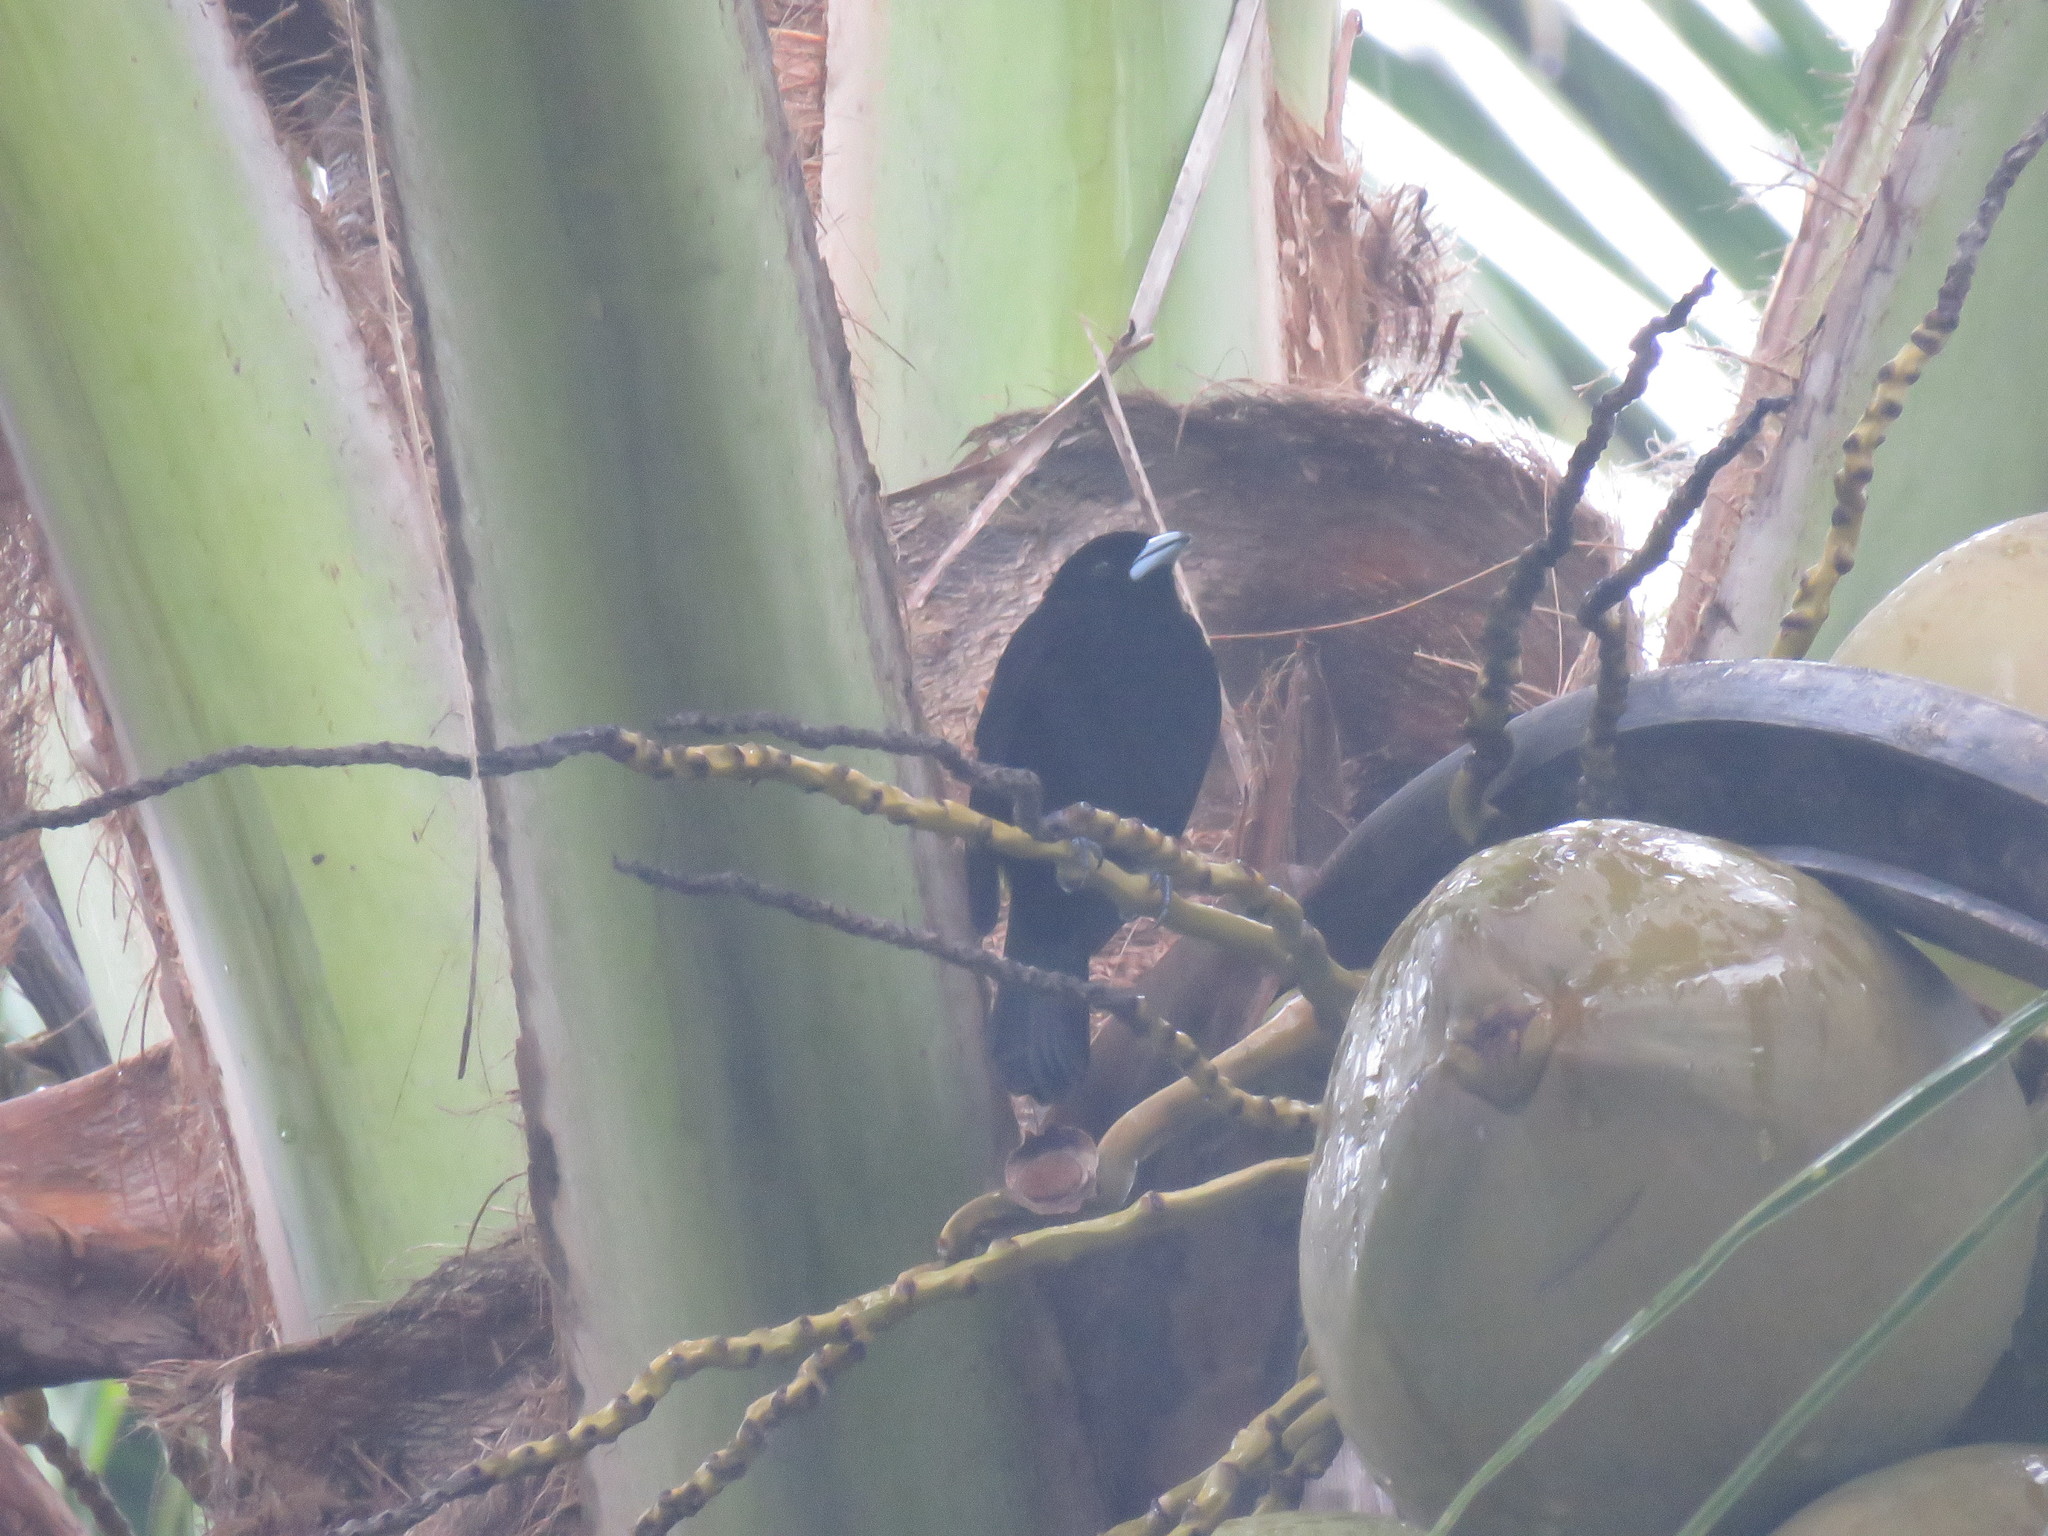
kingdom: Animalia
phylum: Chordata
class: Aves
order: Passeriformes
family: Thraupidae
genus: Ramphocelus
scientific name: Ramphocelus icteronotus
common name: Lemon-rumped tanager
